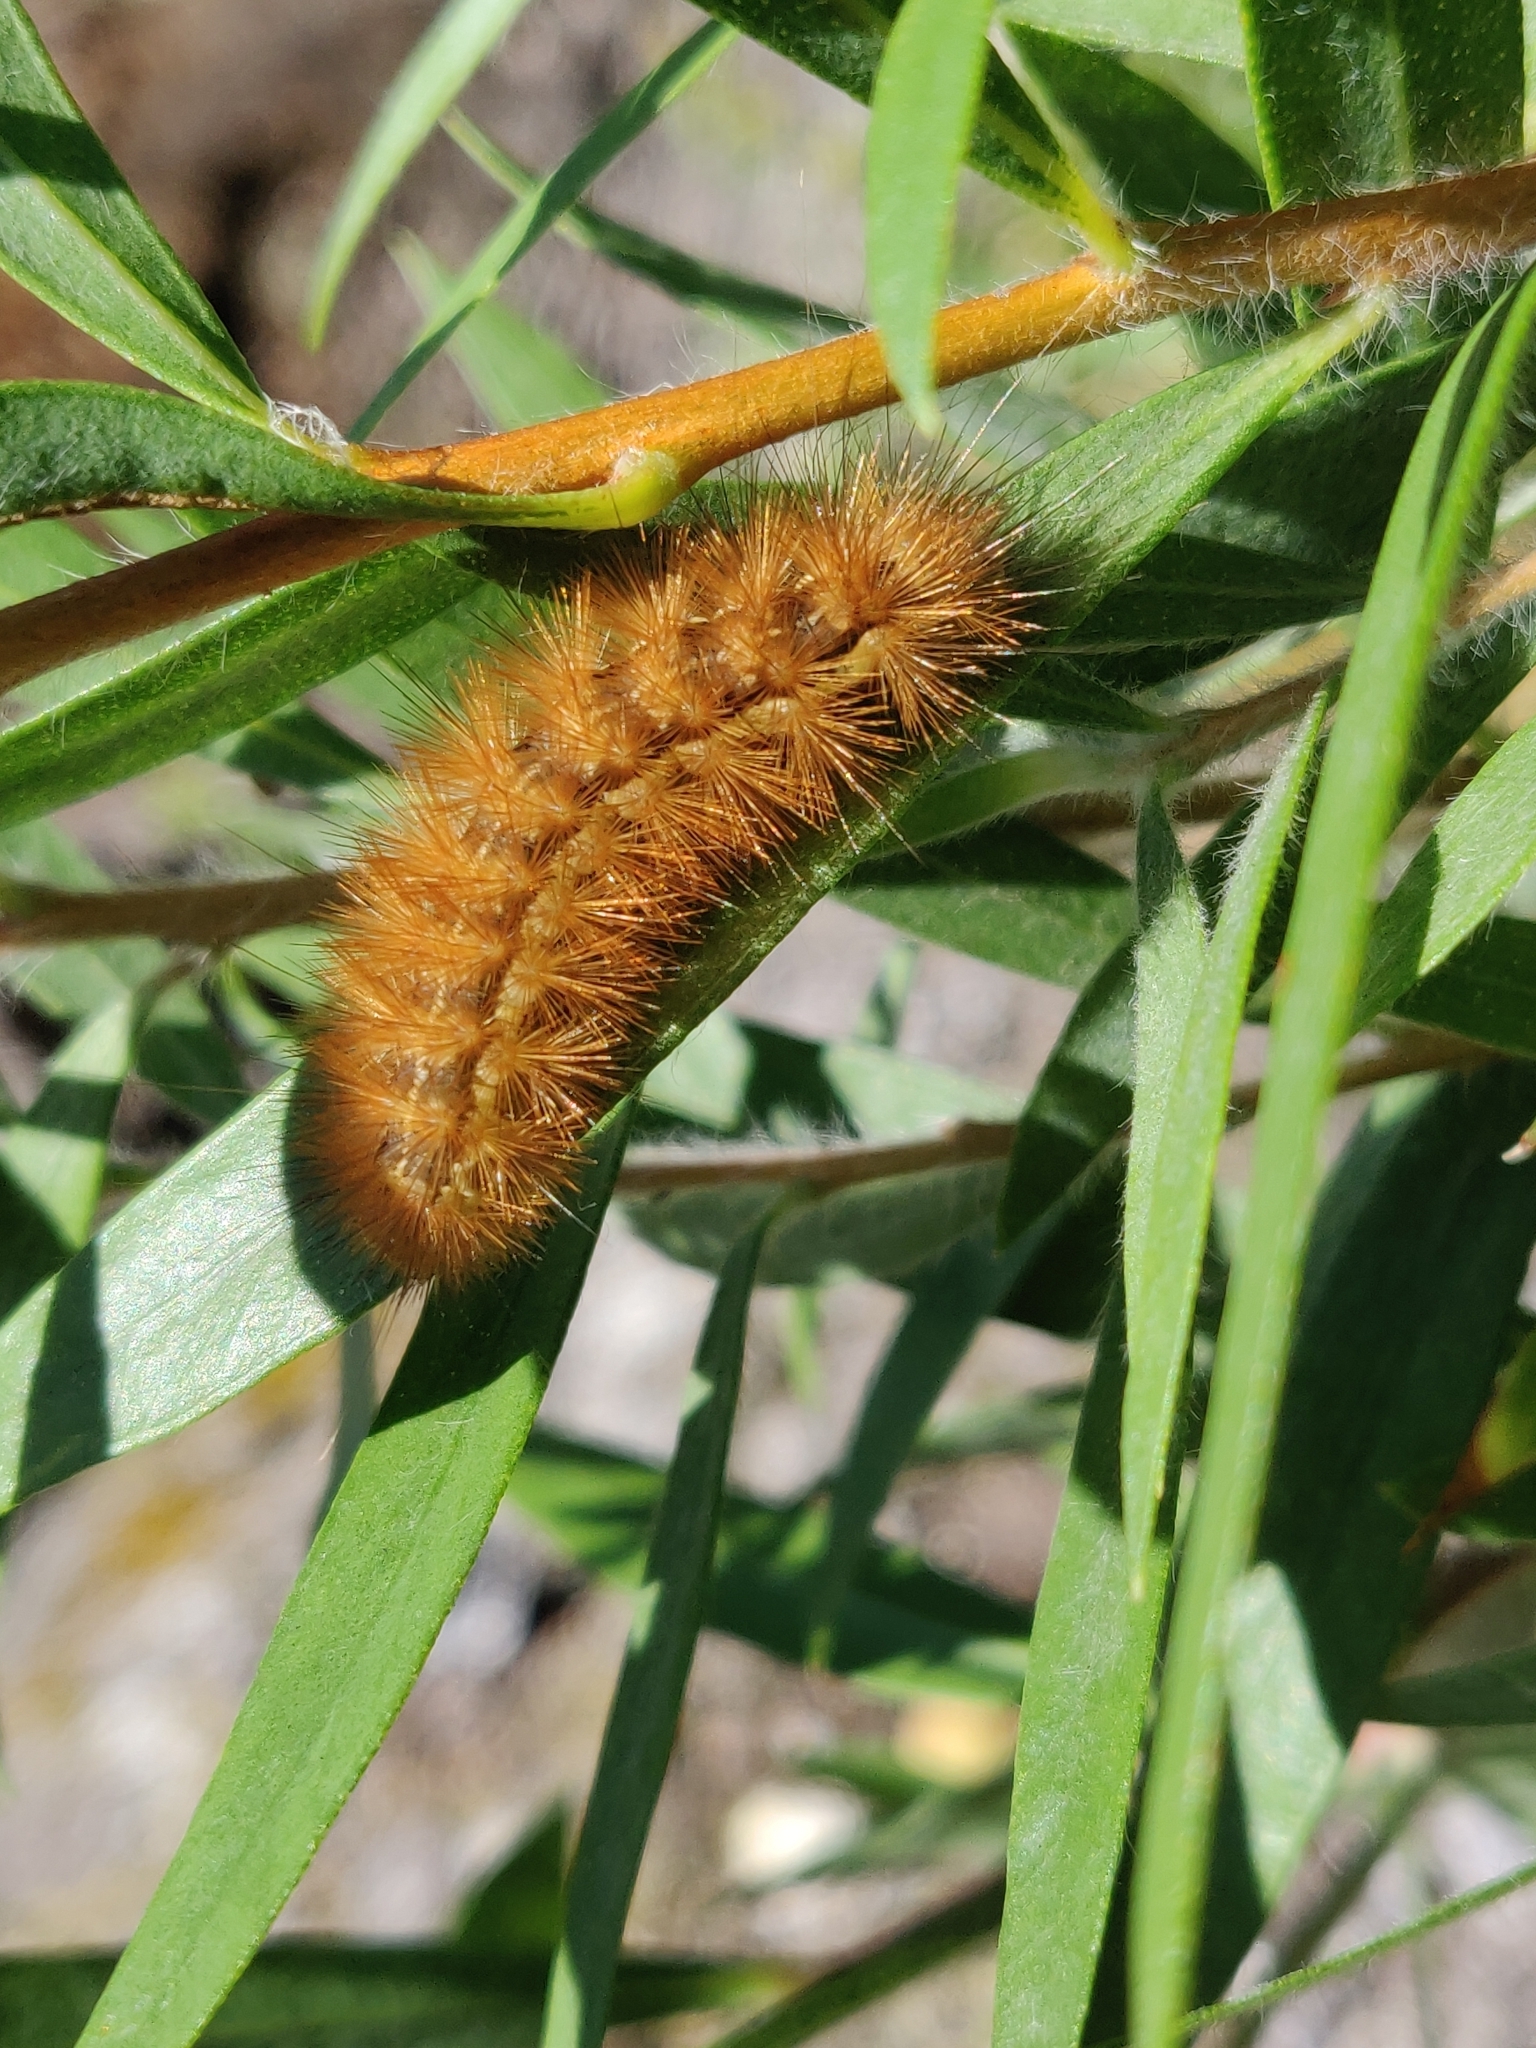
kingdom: Animalia
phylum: Arthropoda
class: Insecta
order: Lepidoptera
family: Erebidae
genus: Phragmatobia
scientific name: Phragmatobia fuliginosa
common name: Ruby tiger
